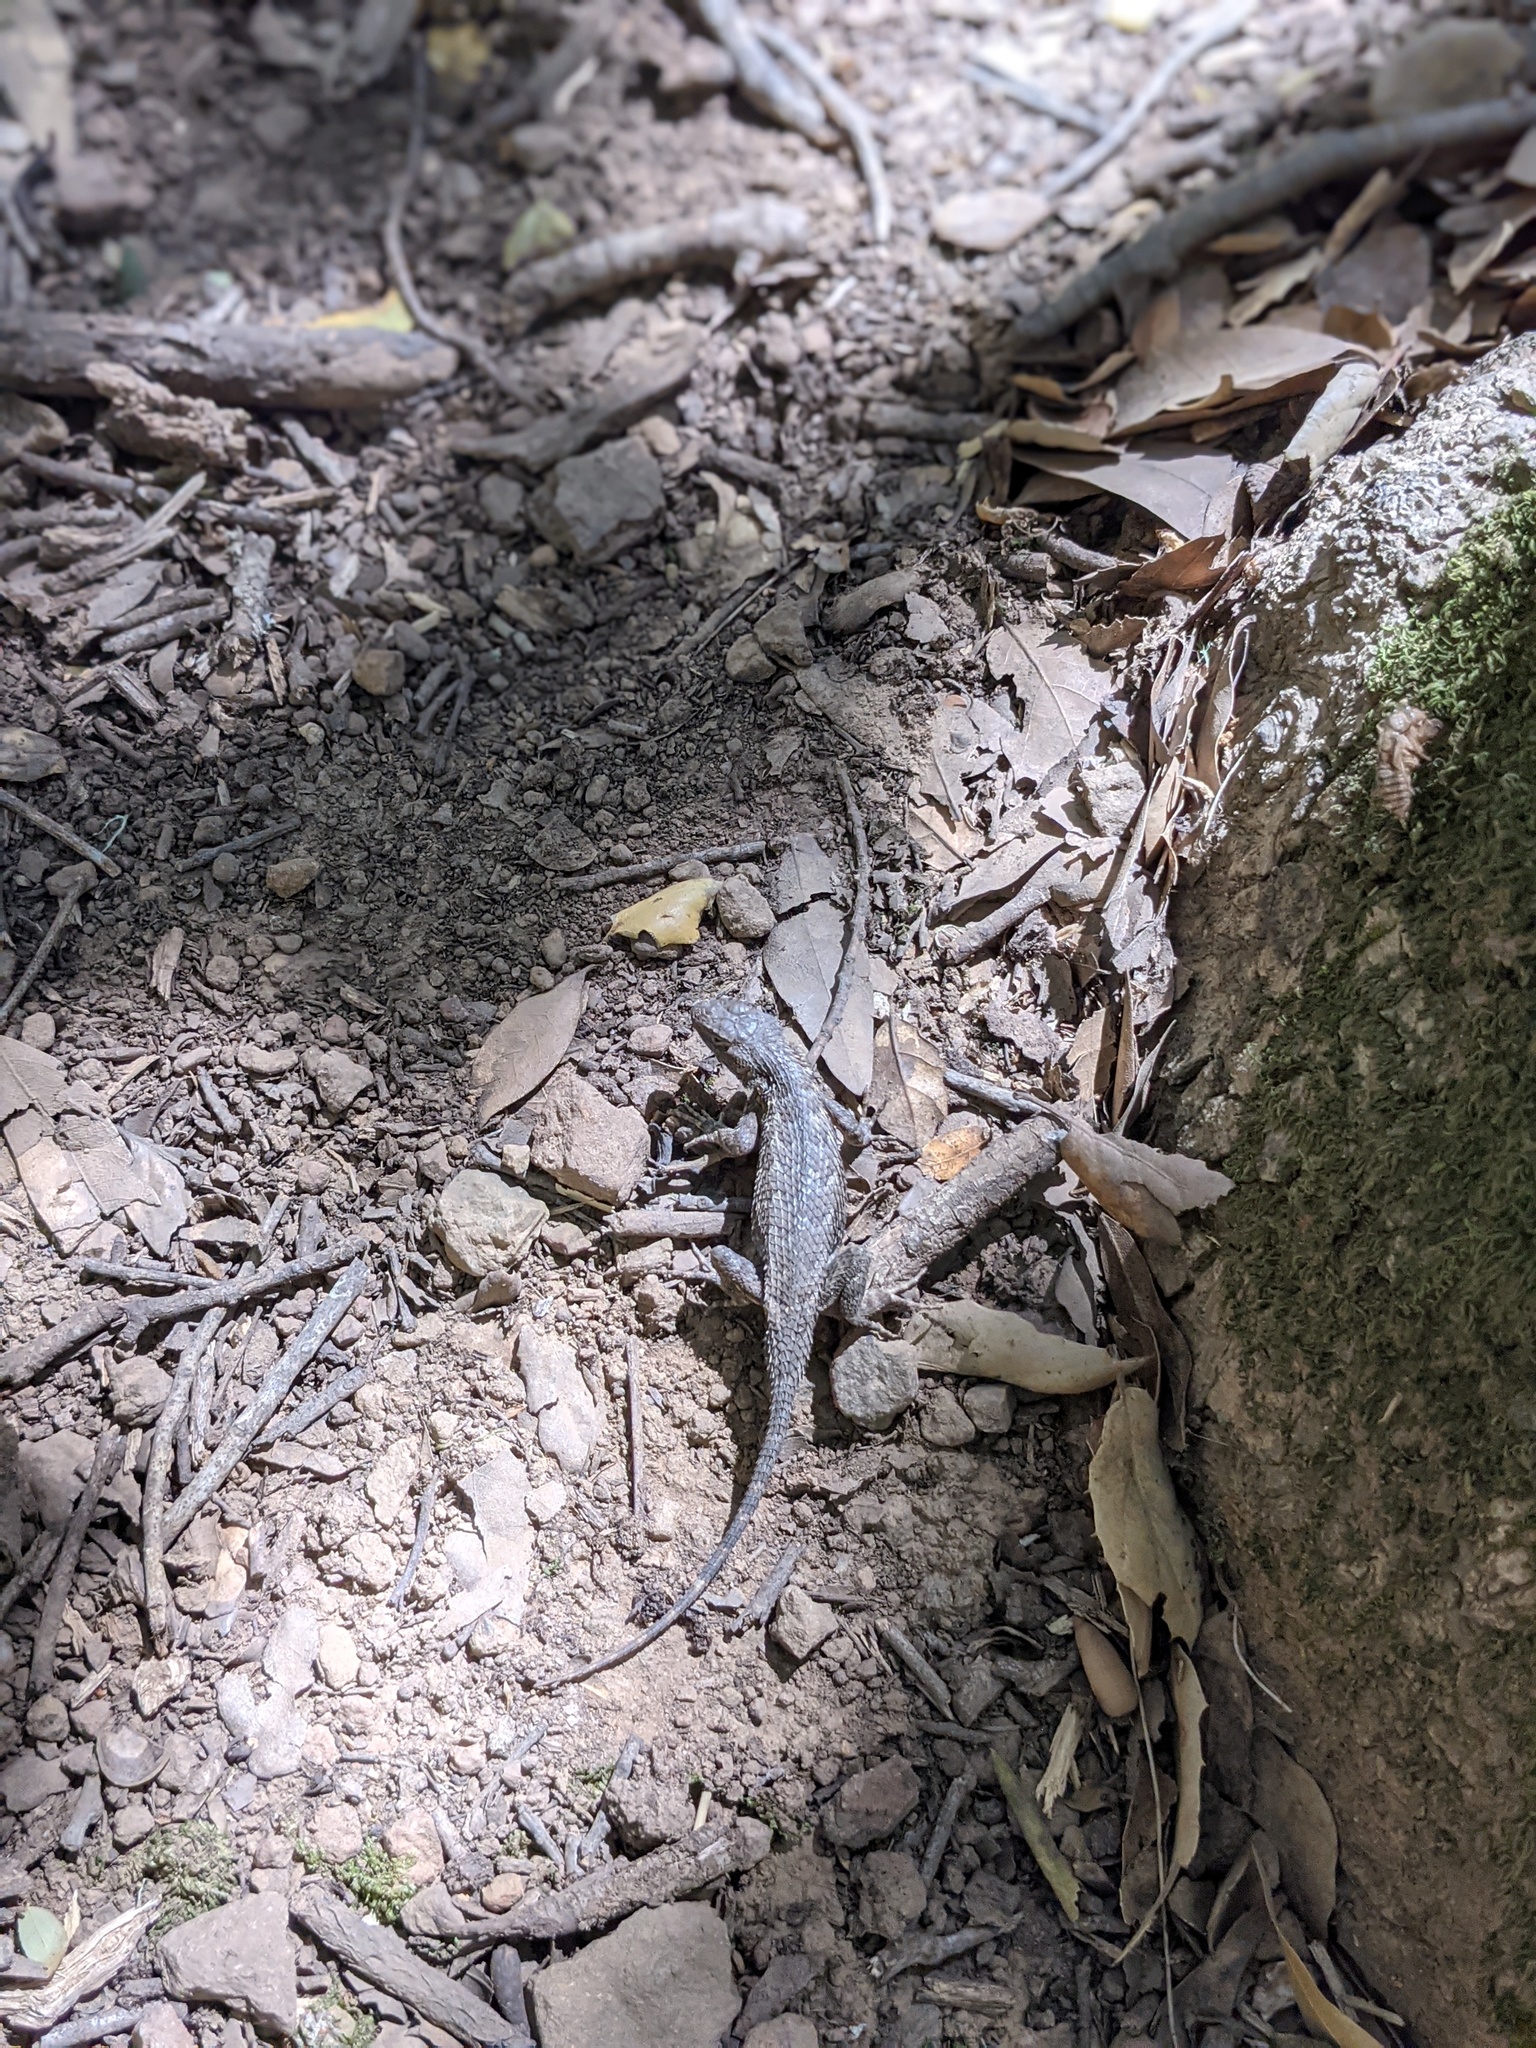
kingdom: Animalia
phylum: Chordata
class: Squamata
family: Phrynosomatidae
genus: Sceloporus
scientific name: Sceloporus occidentalis
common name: Western fence lizard
